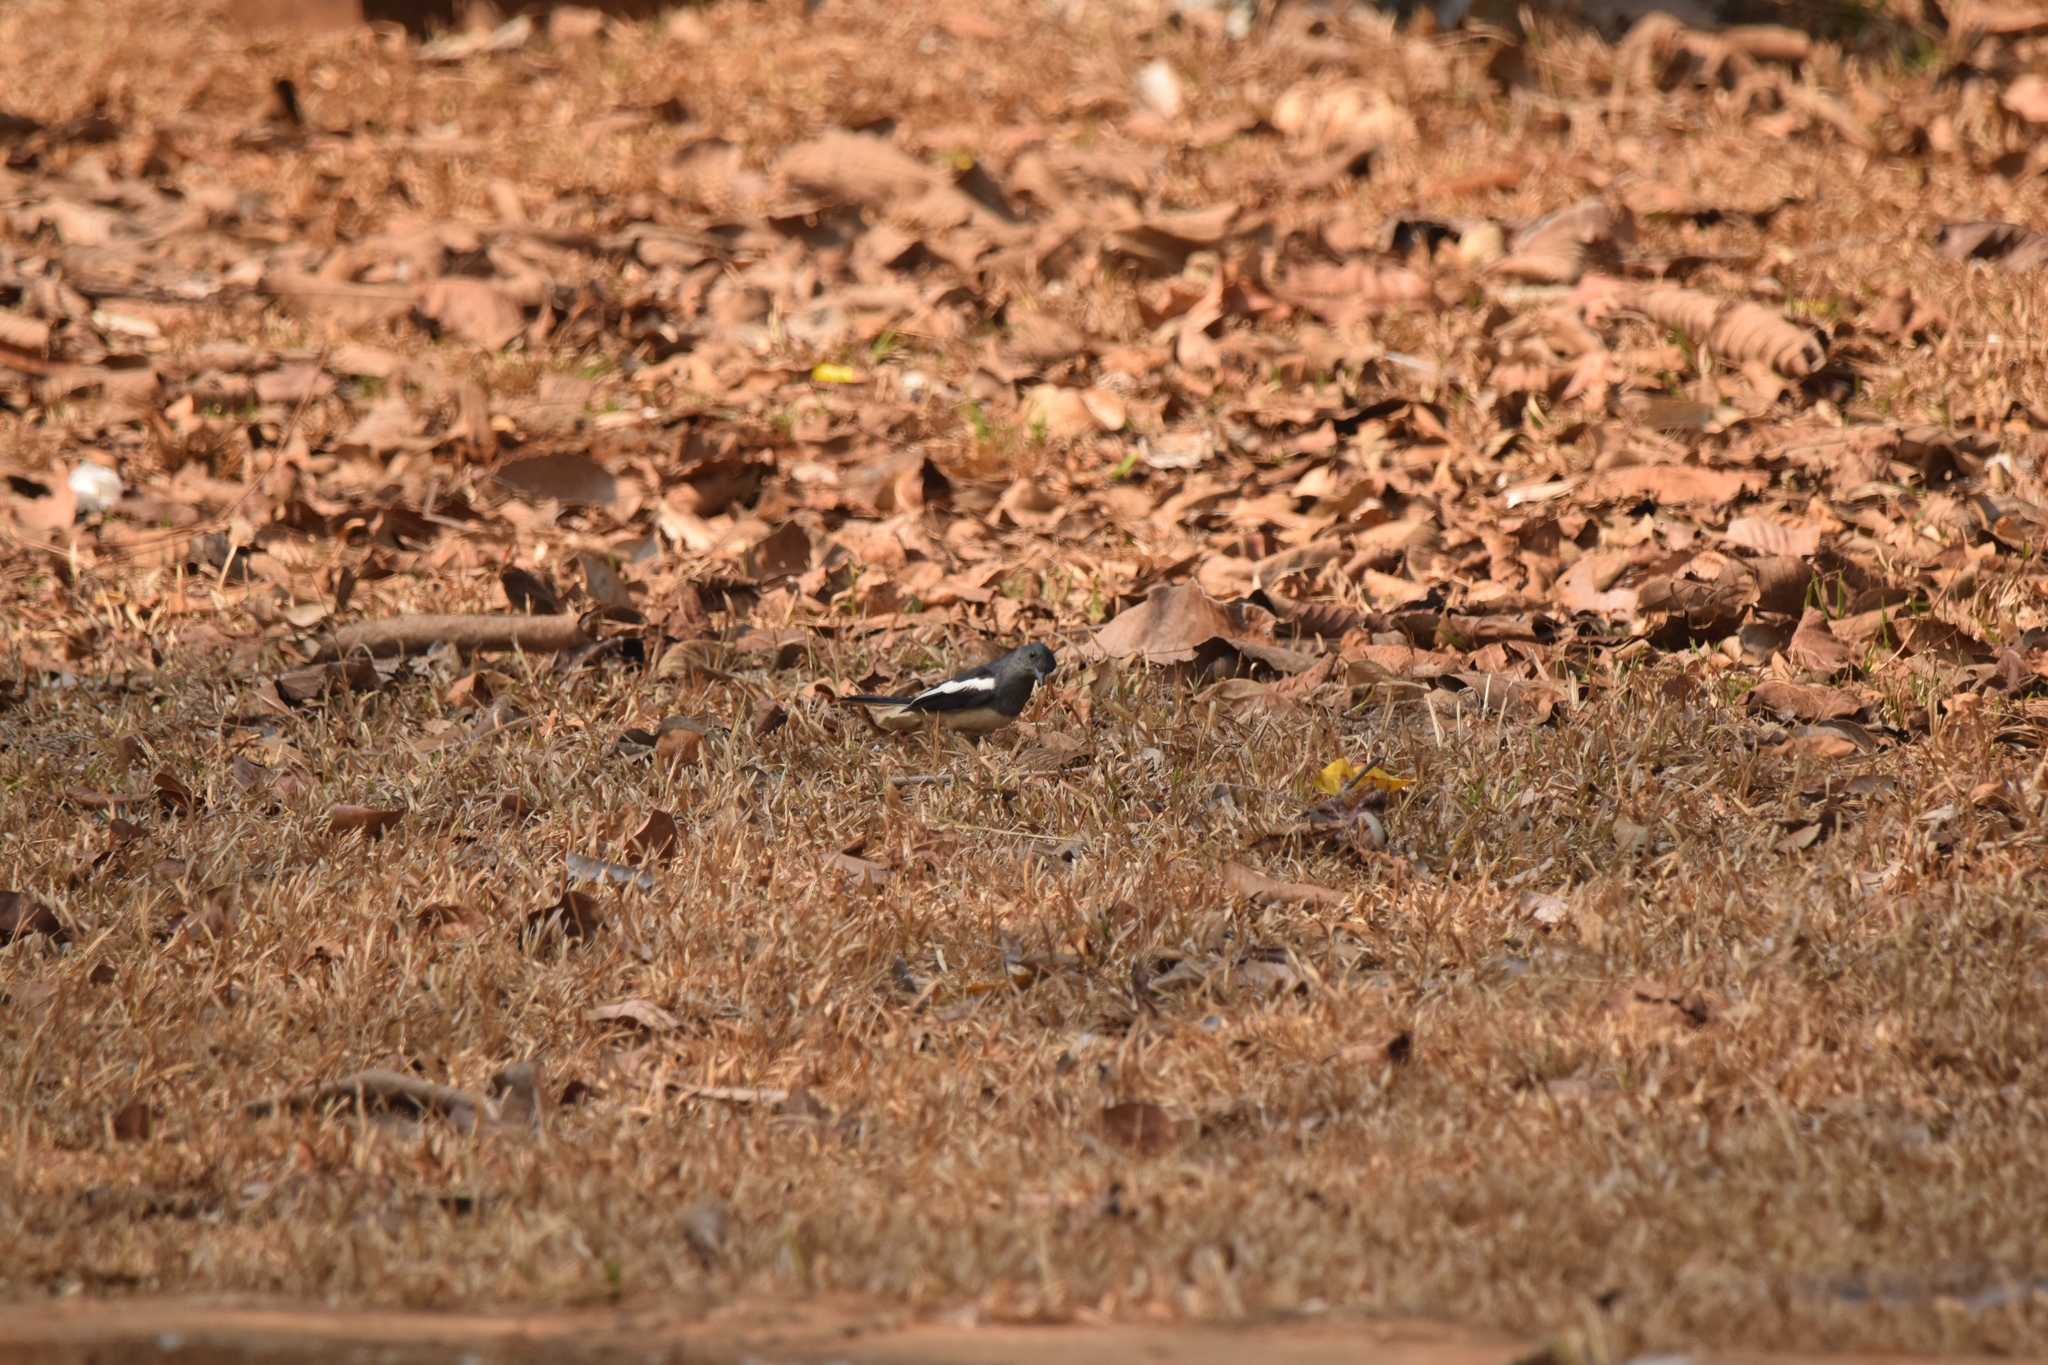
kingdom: Animalia
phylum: Chordata
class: Aves
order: Passeriformes
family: Muscicapidae
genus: Copsychus
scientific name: Copsychus saularis
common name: Oriental magpie-robin
